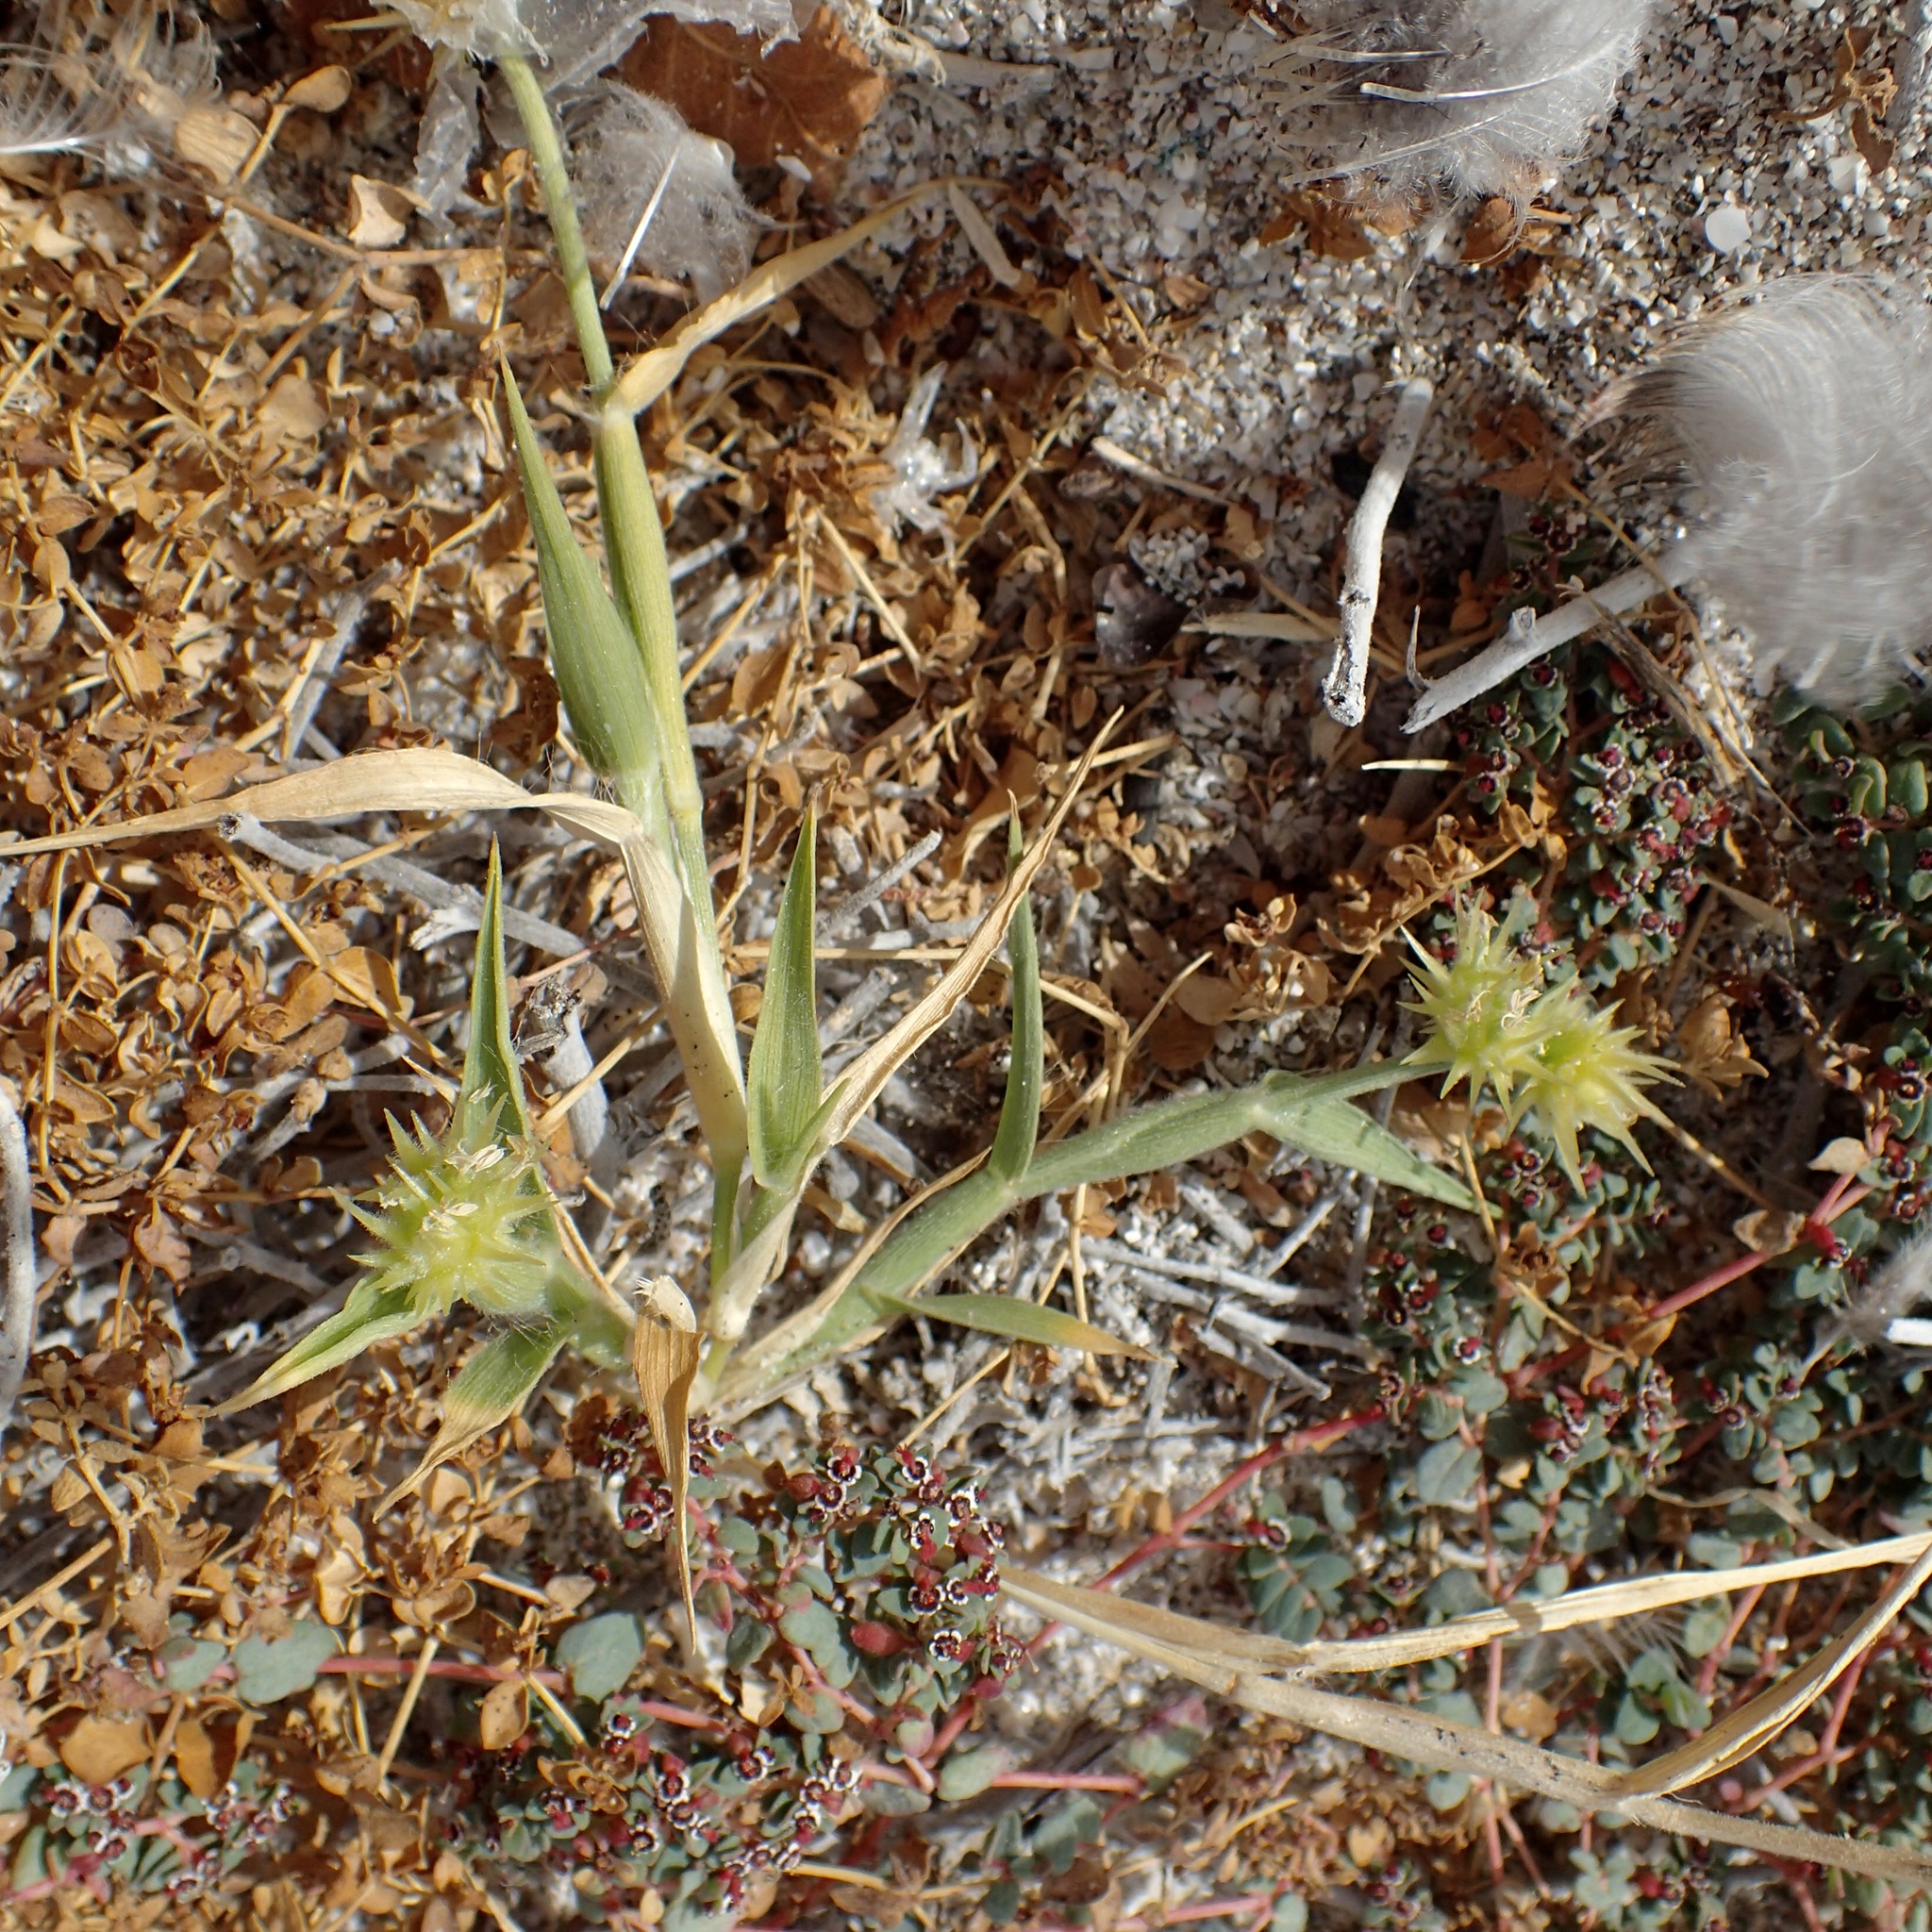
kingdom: Plantae
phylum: Tracheophyta
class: Liliopsida
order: Poales
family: Poaceae
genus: Cenchrus
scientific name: Cenchrus palmeri
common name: Giant sandbur
